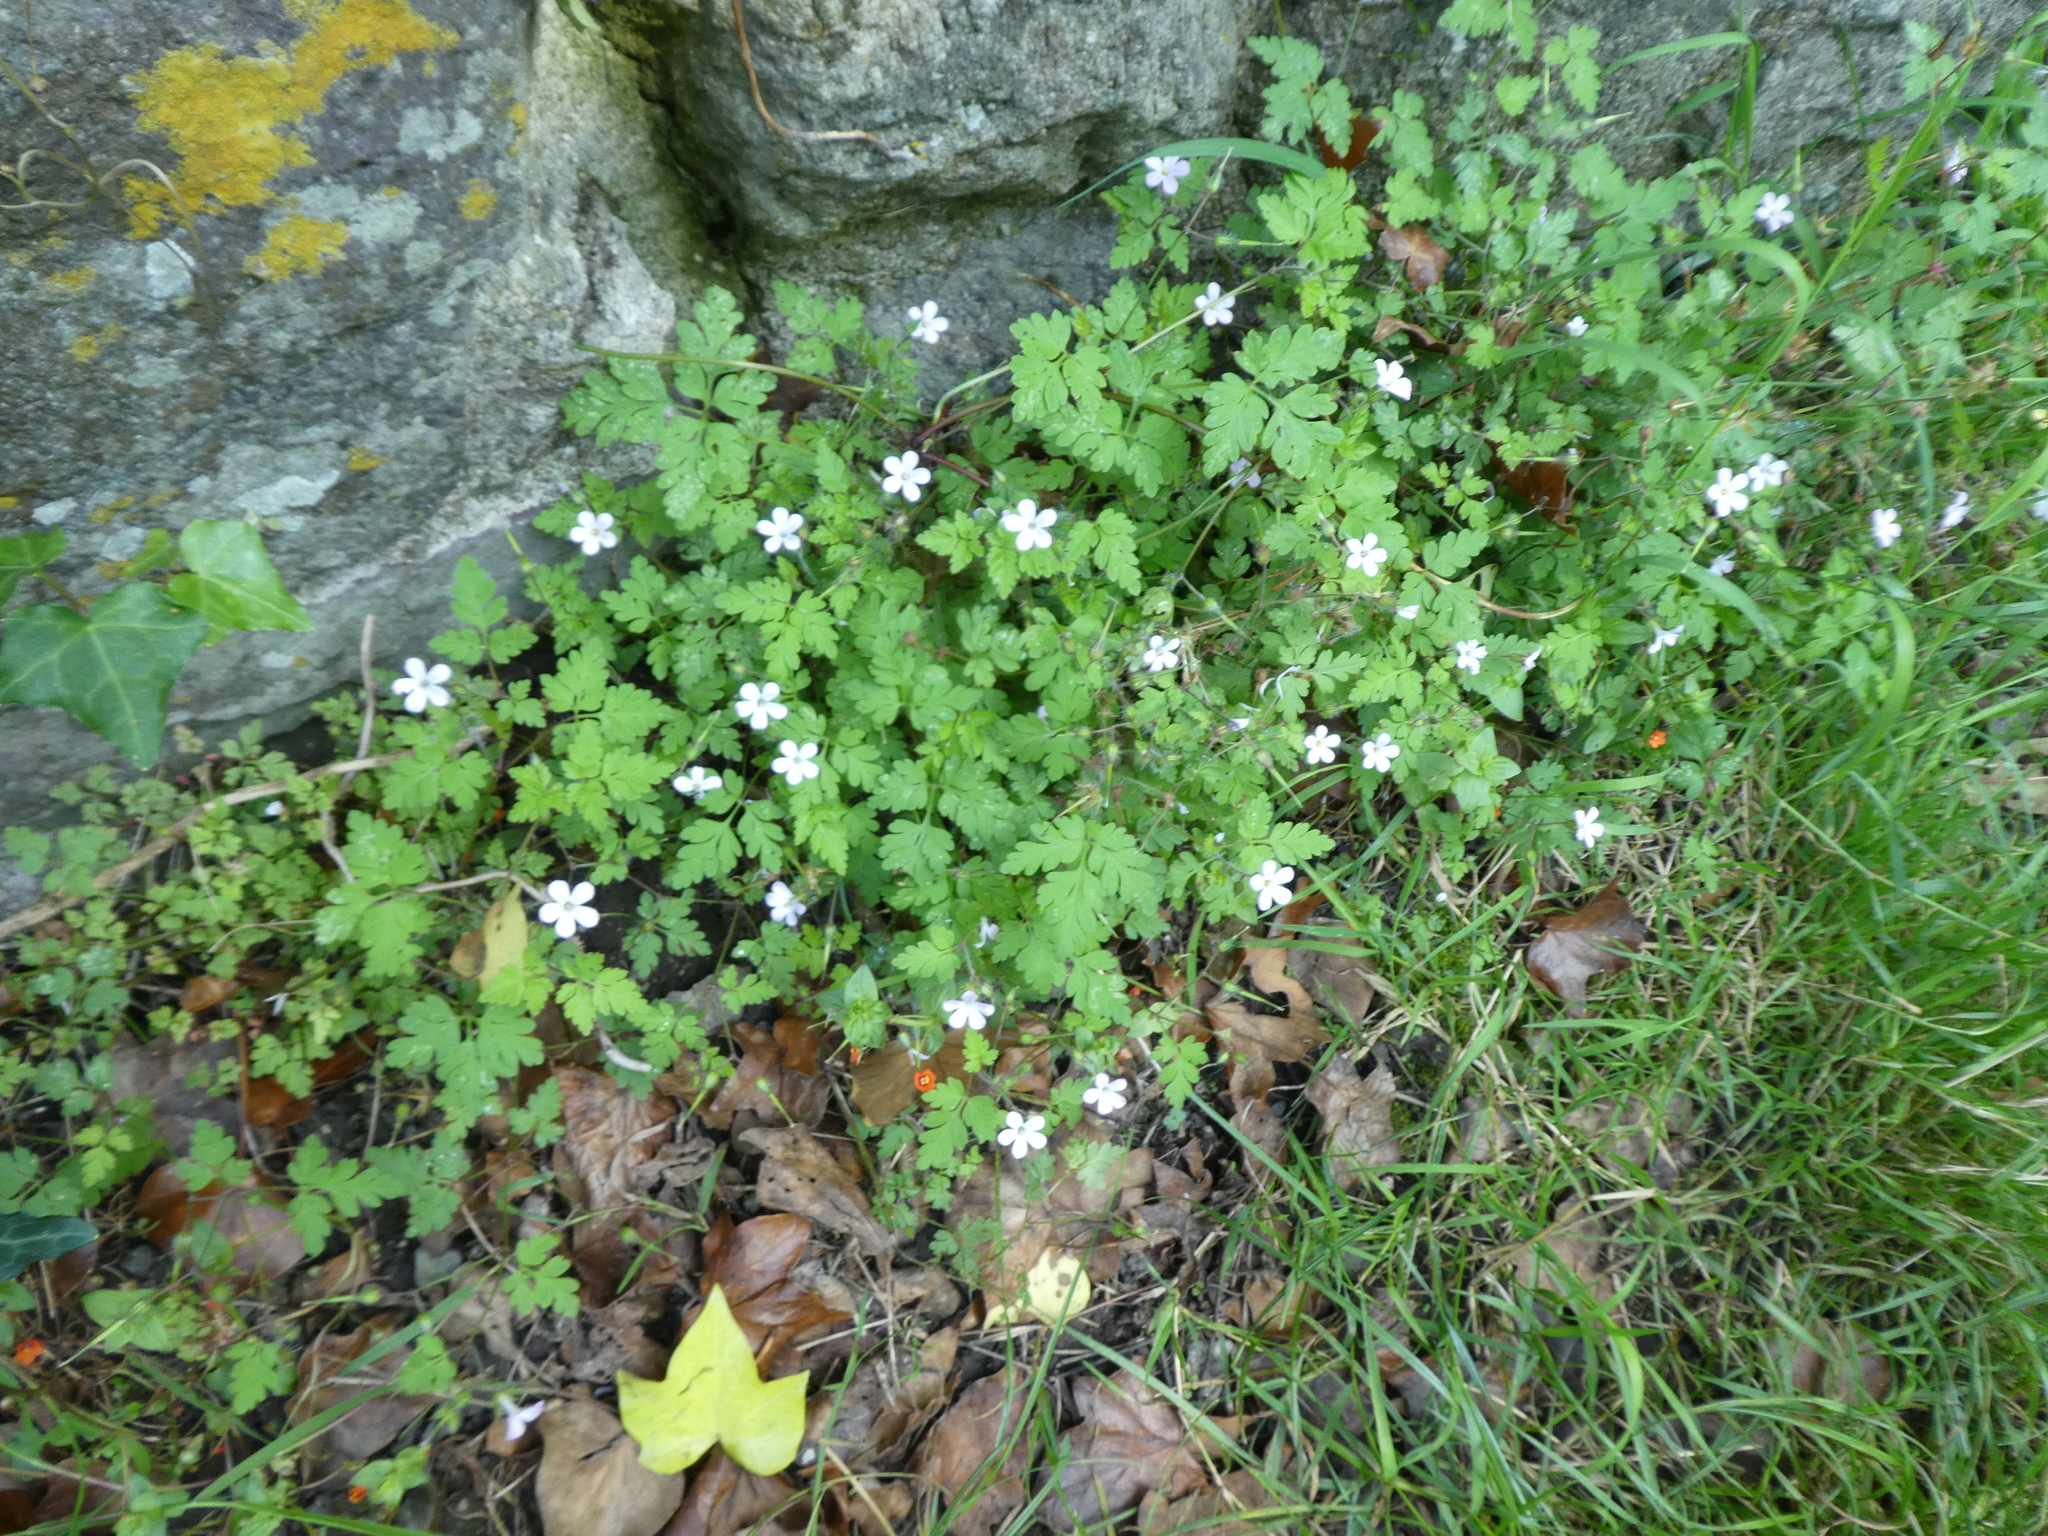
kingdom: Plantae
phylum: Tracheophyta
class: Magnoliopsida
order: Geraniales
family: Geraniaceae
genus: Geranium
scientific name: Geranium robertianum
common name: Herb-robert
